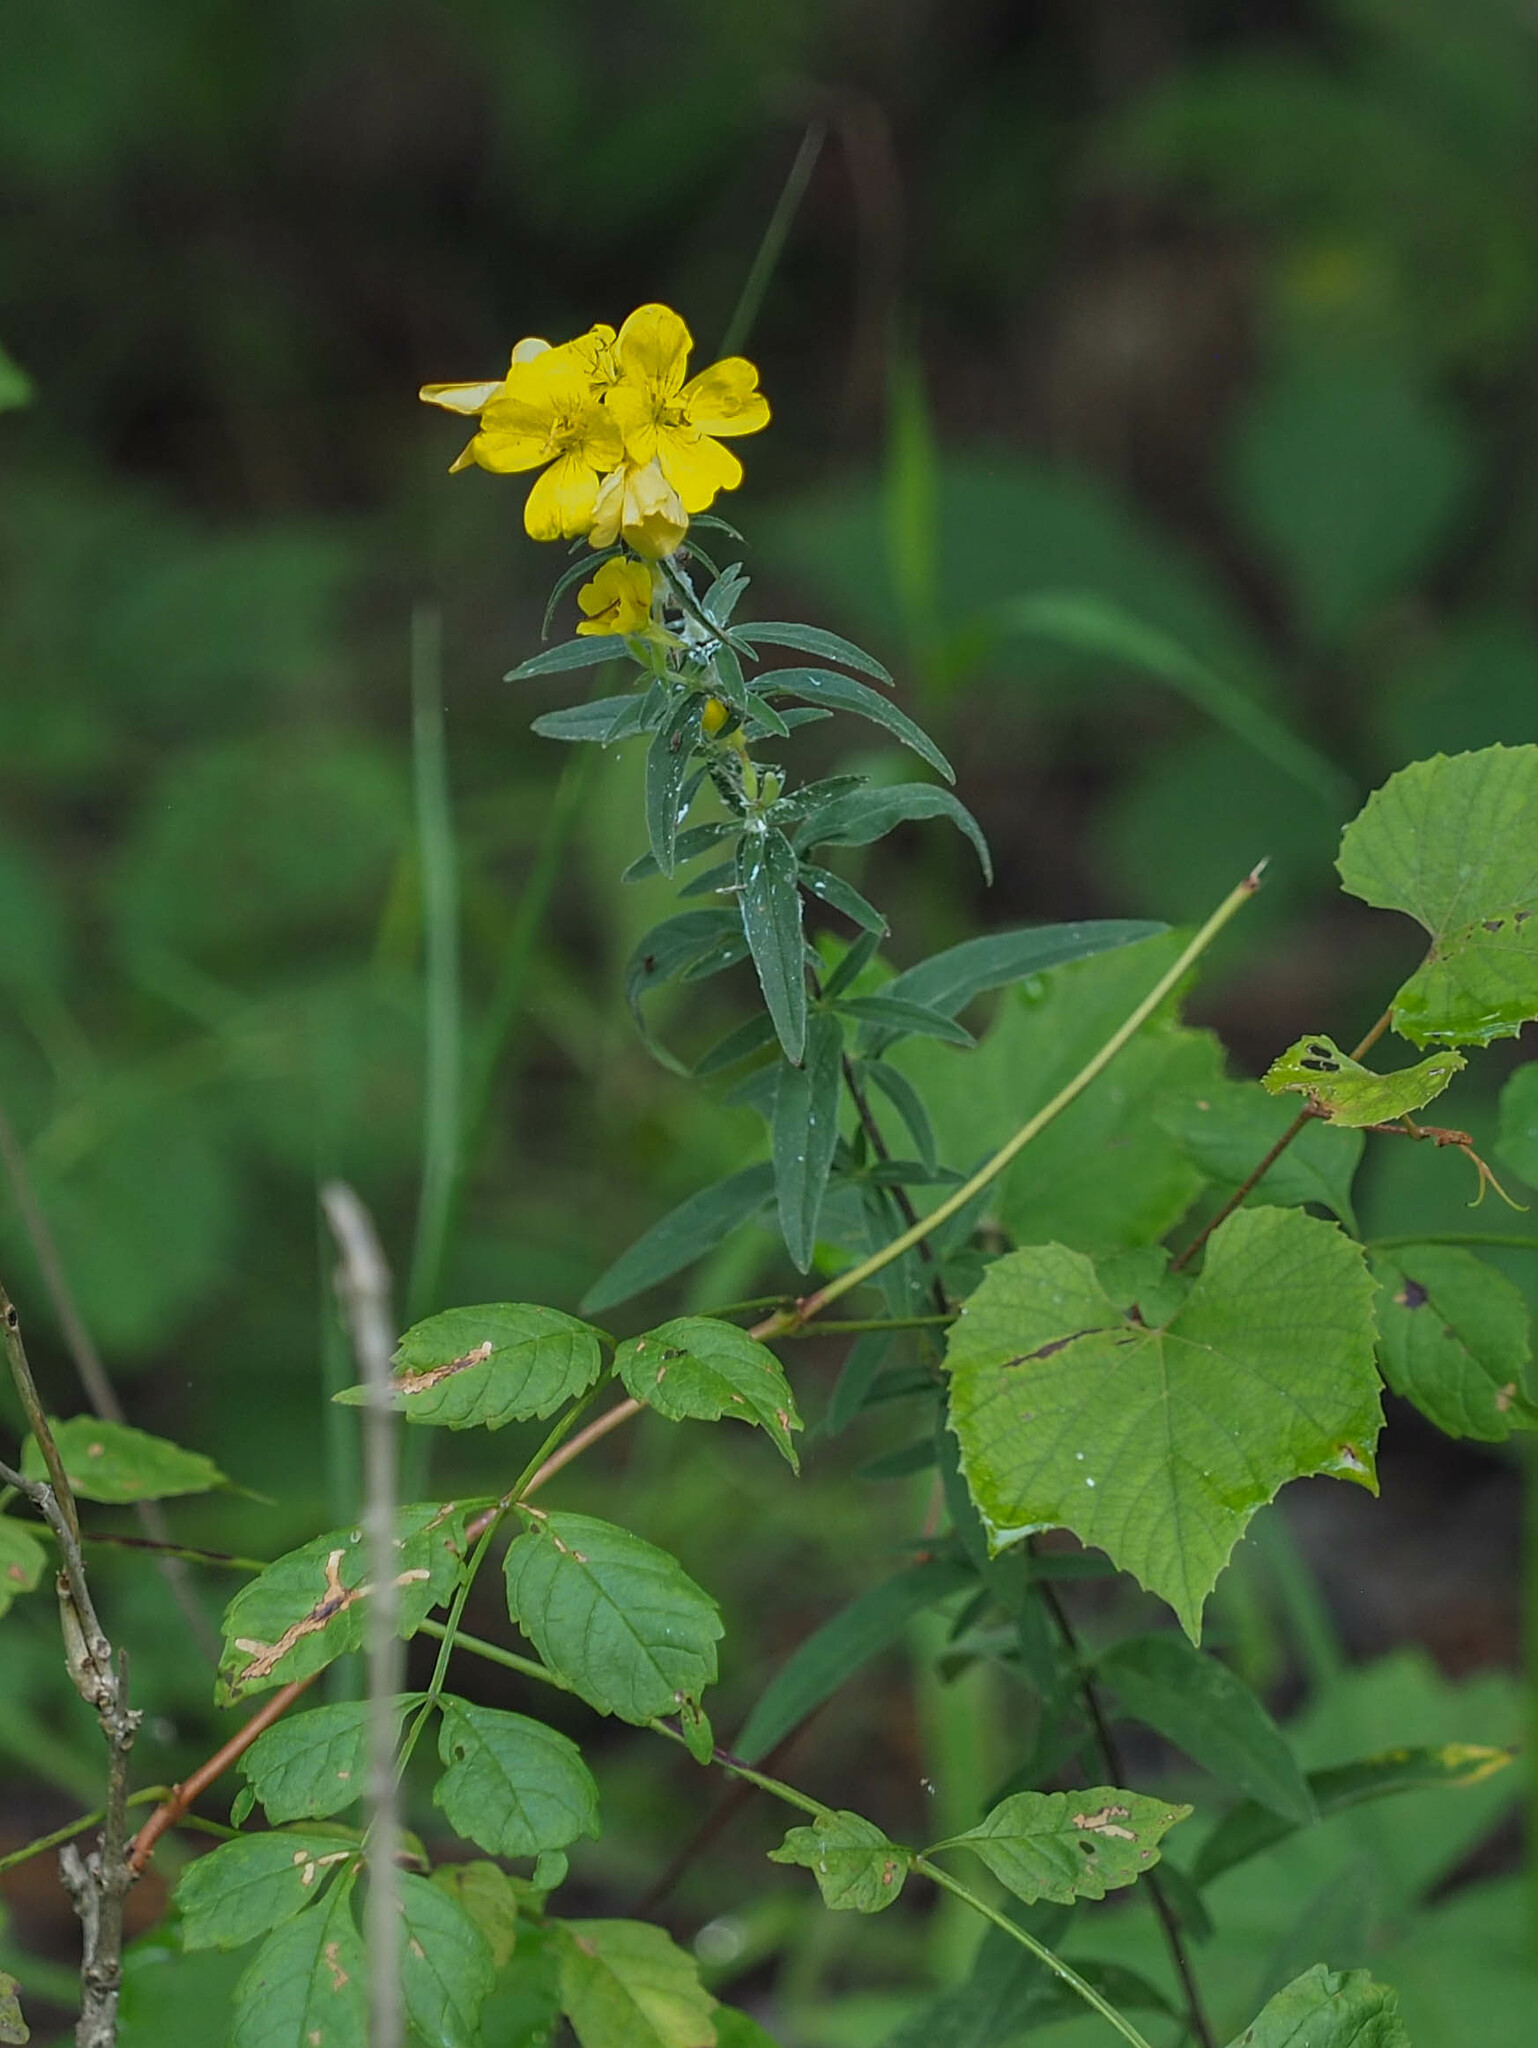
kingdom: Plantae
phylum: Tracheophyta
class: Magnoliopsida
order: Myrtales
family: Onagraceae
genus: Oenothera
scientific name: Oenothera fruticosa
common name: Southern sundrops
